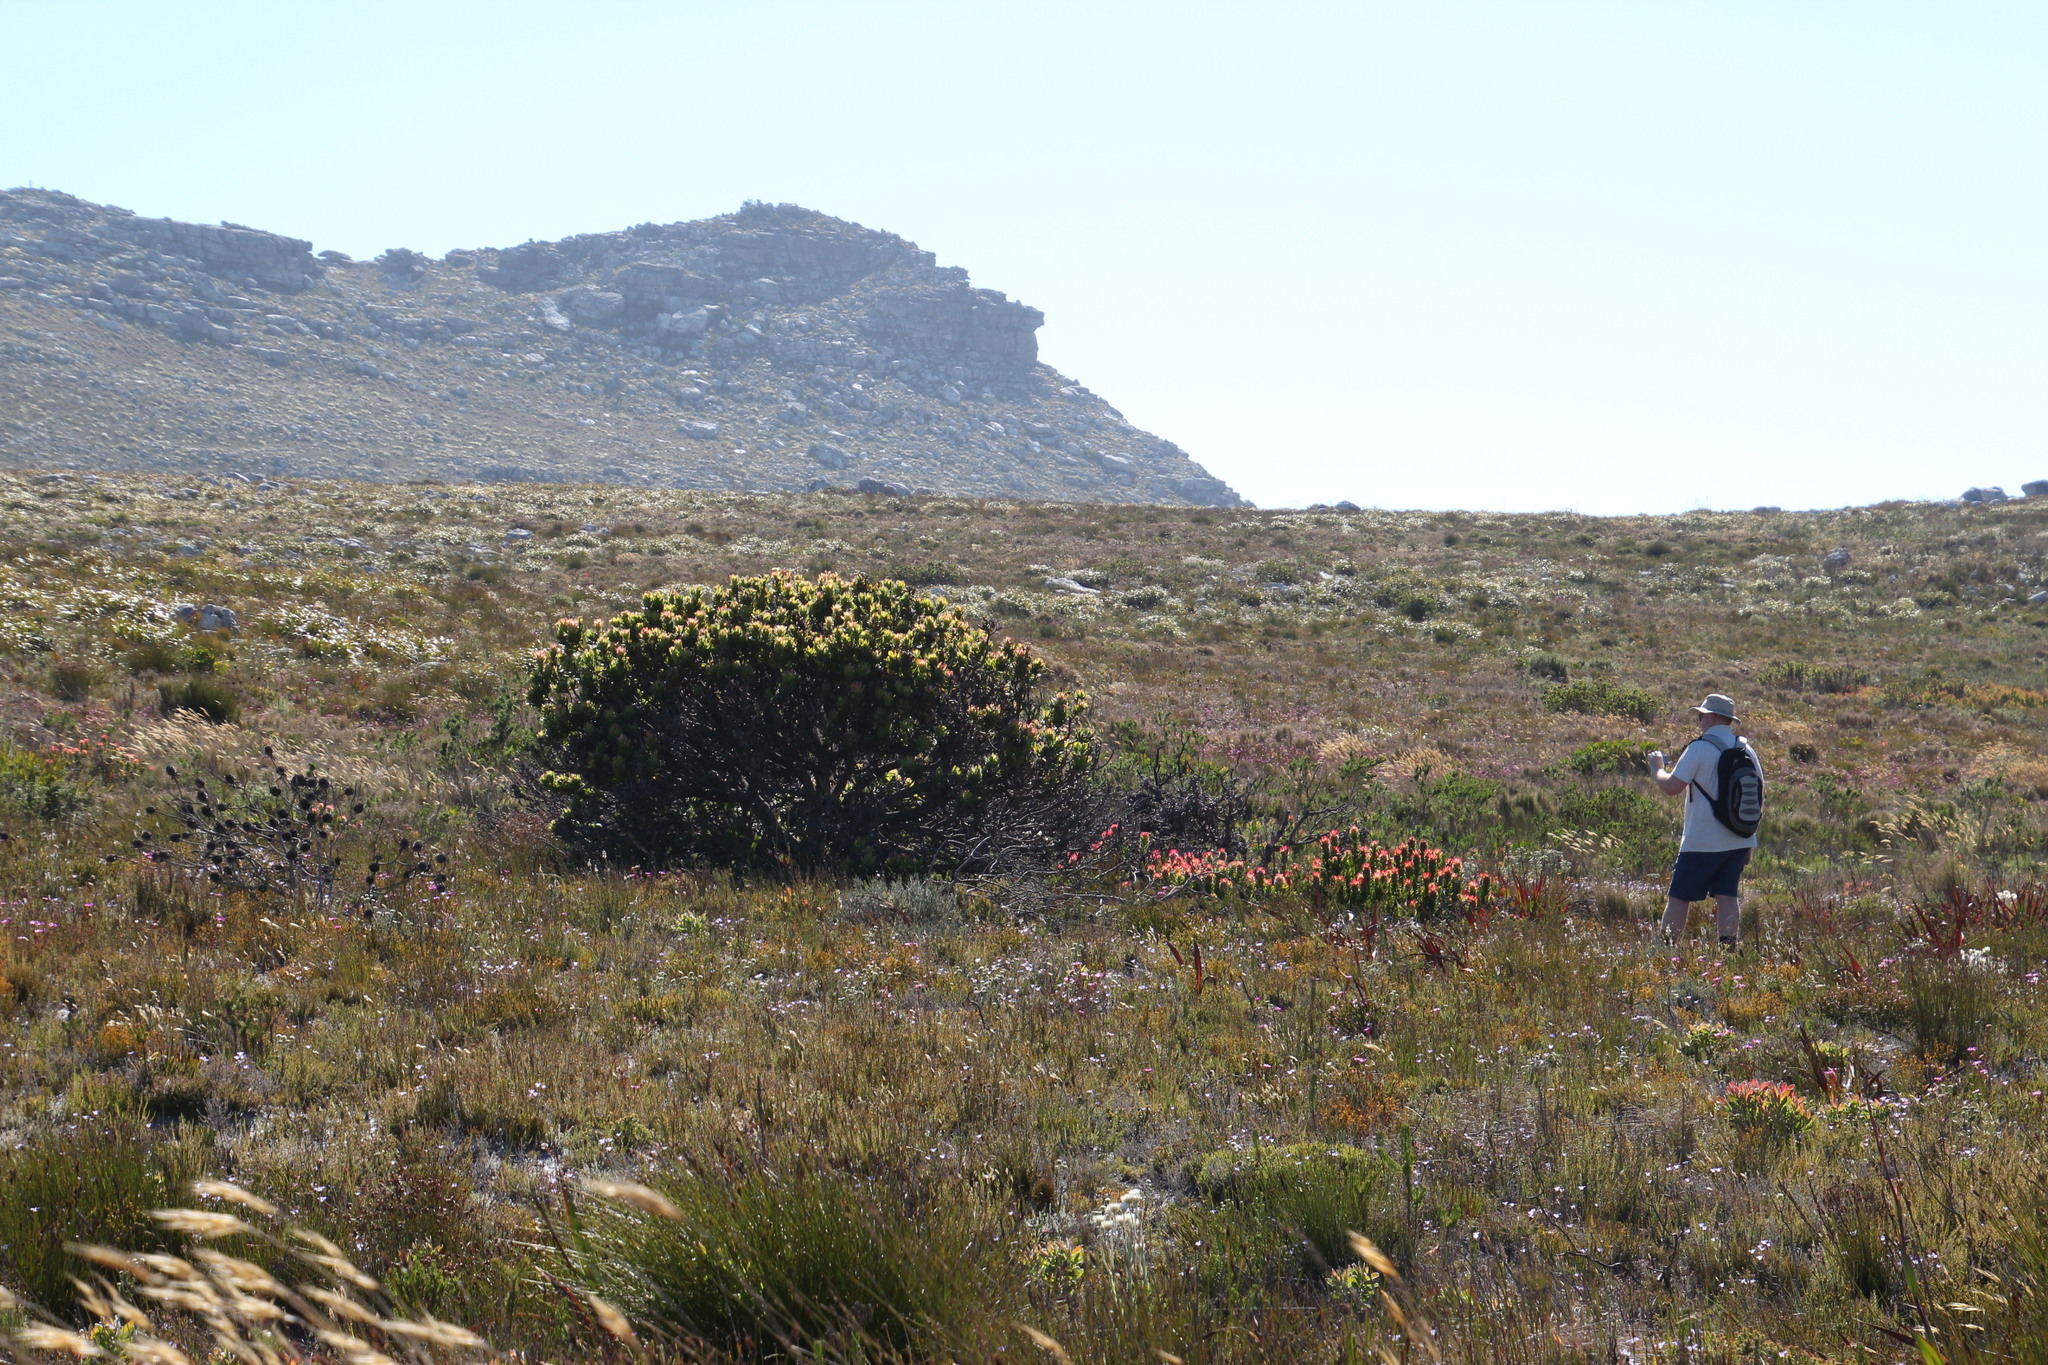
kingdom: Plantae
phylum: Tracheophyta
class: Magnoliopsida
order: Proteales
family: Proteaceae
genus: Mimetes
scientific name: Mimetes fimbriifolius
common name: Fringed bottlebrush
